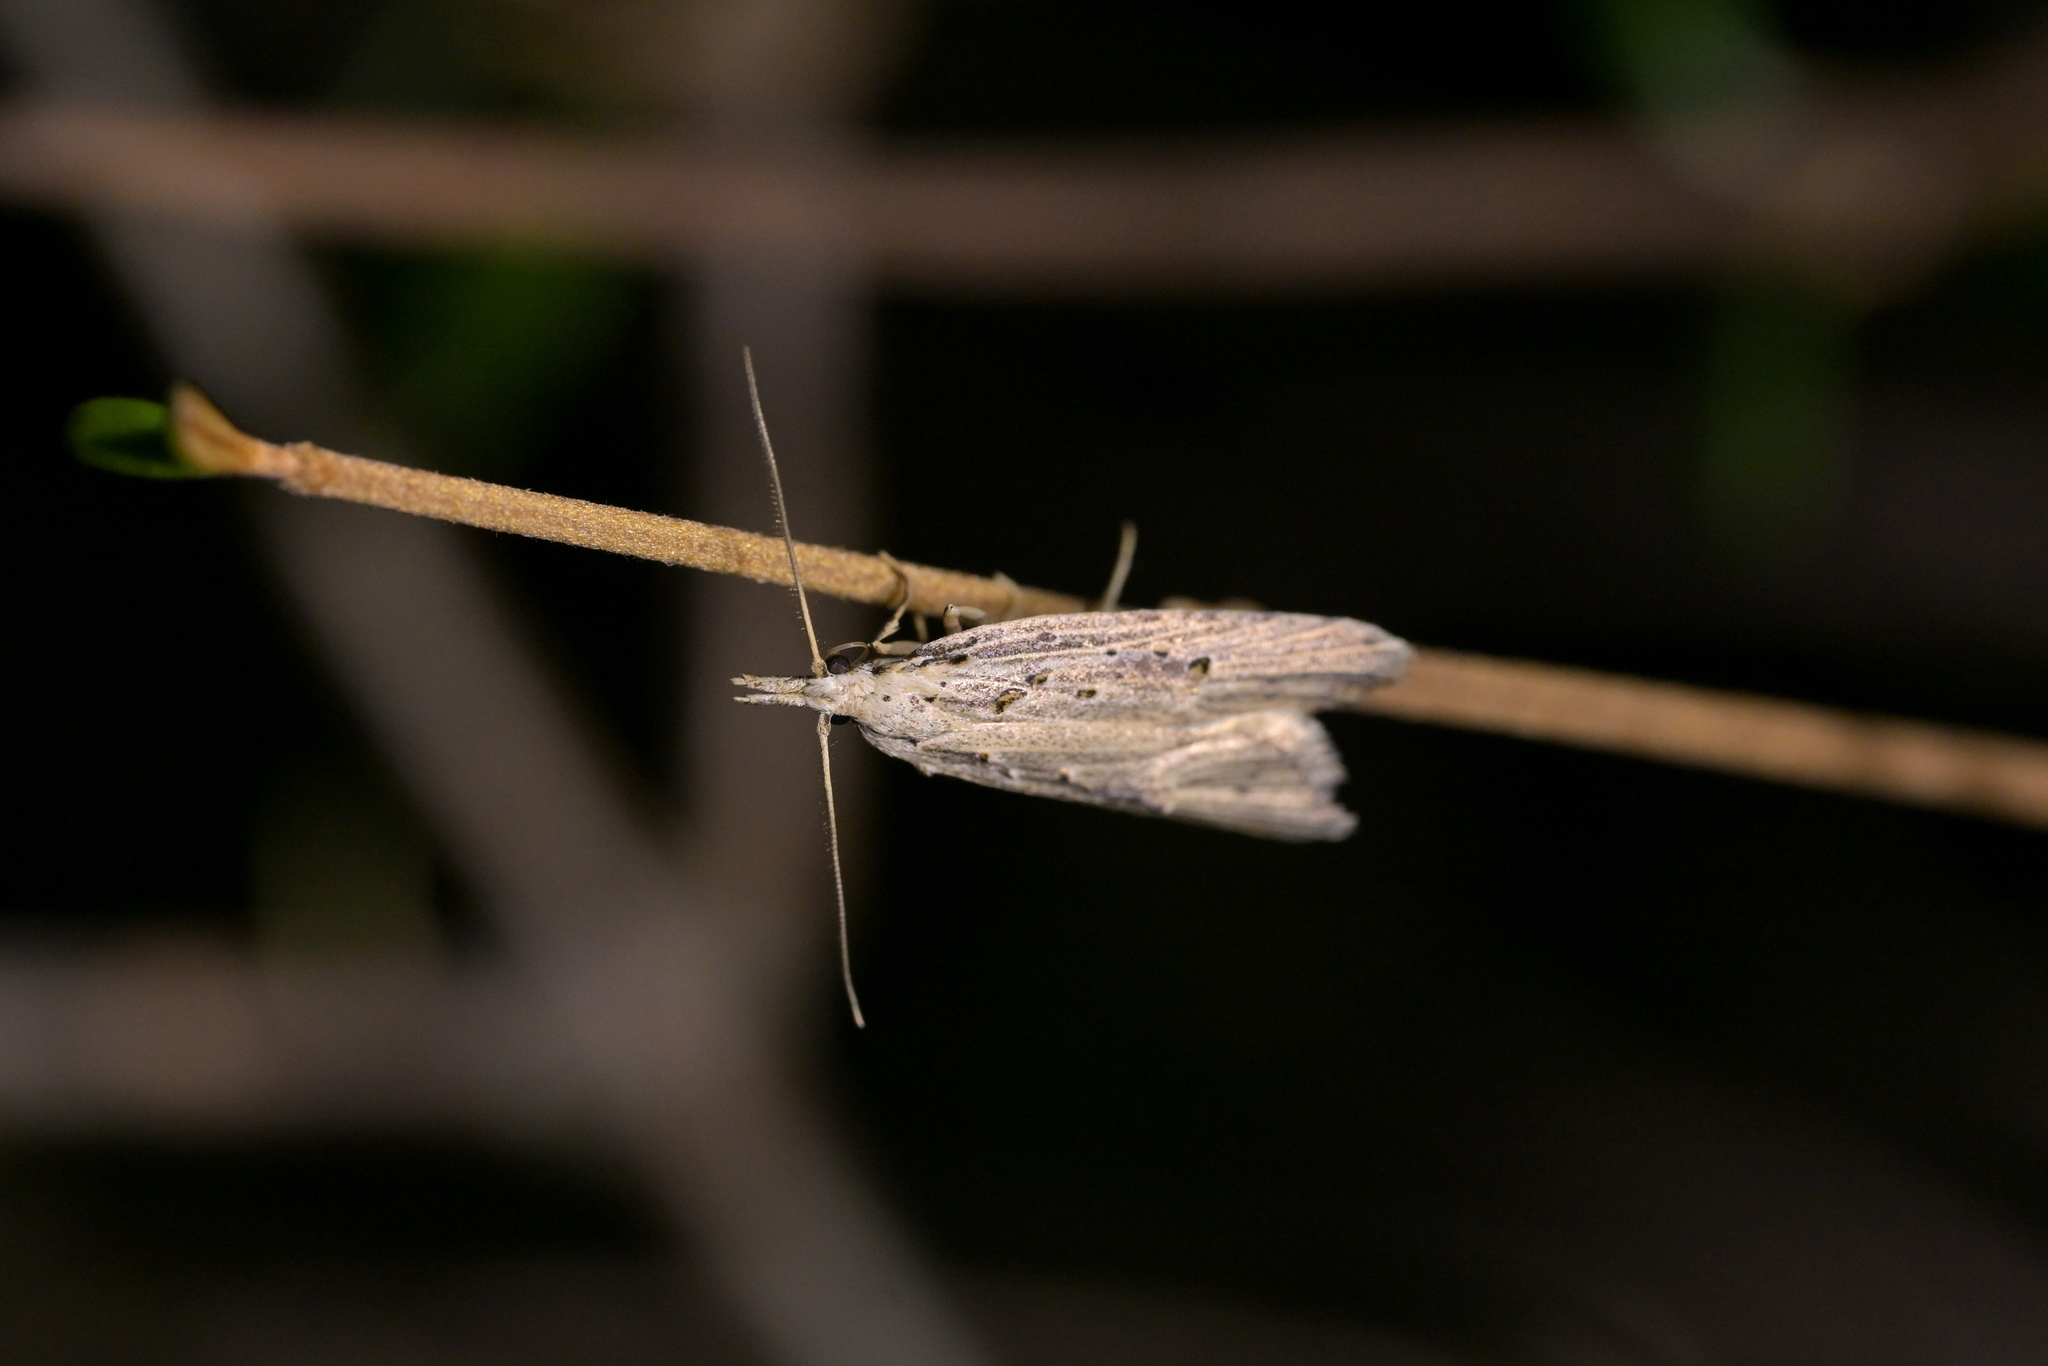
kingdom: Animalia
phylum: Arthropoda
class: Insecta
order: Lepidoptera
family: Carposinidae
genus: Carposina
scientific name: Carposina Heterocrossa exochana
